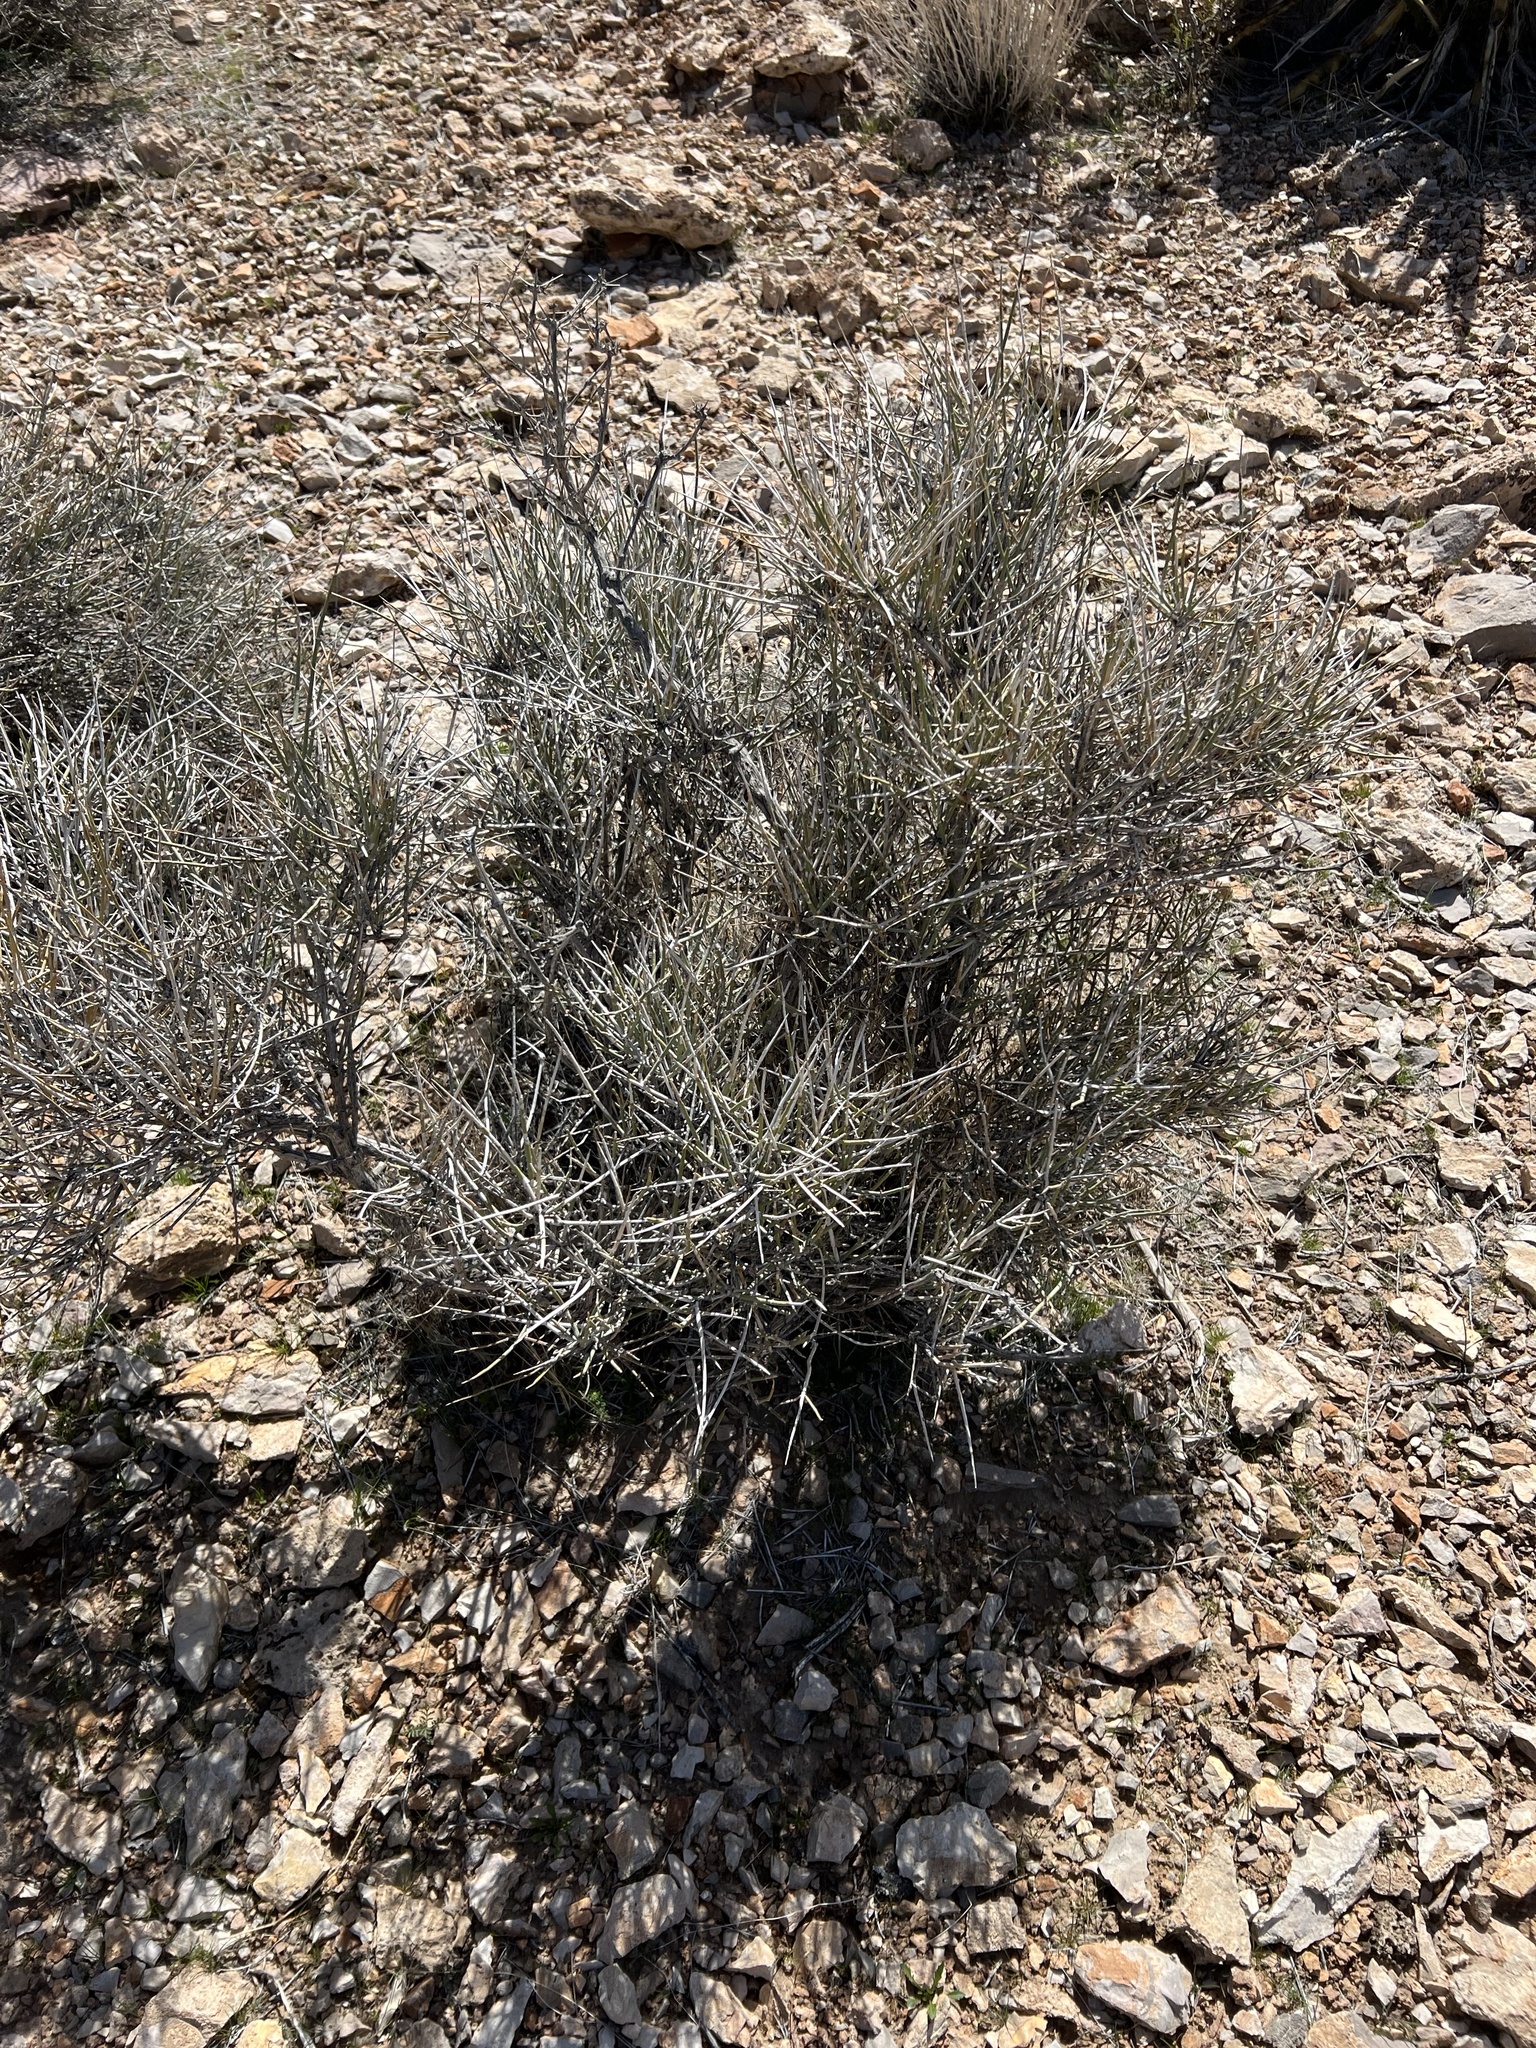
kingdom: Plantae
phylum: Tracheophyta
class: Gnetopsida
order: Ephedrales
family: Ephedraceae
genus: Ephedra
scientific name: Ephedra nevadensis
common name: Gray ephedra
